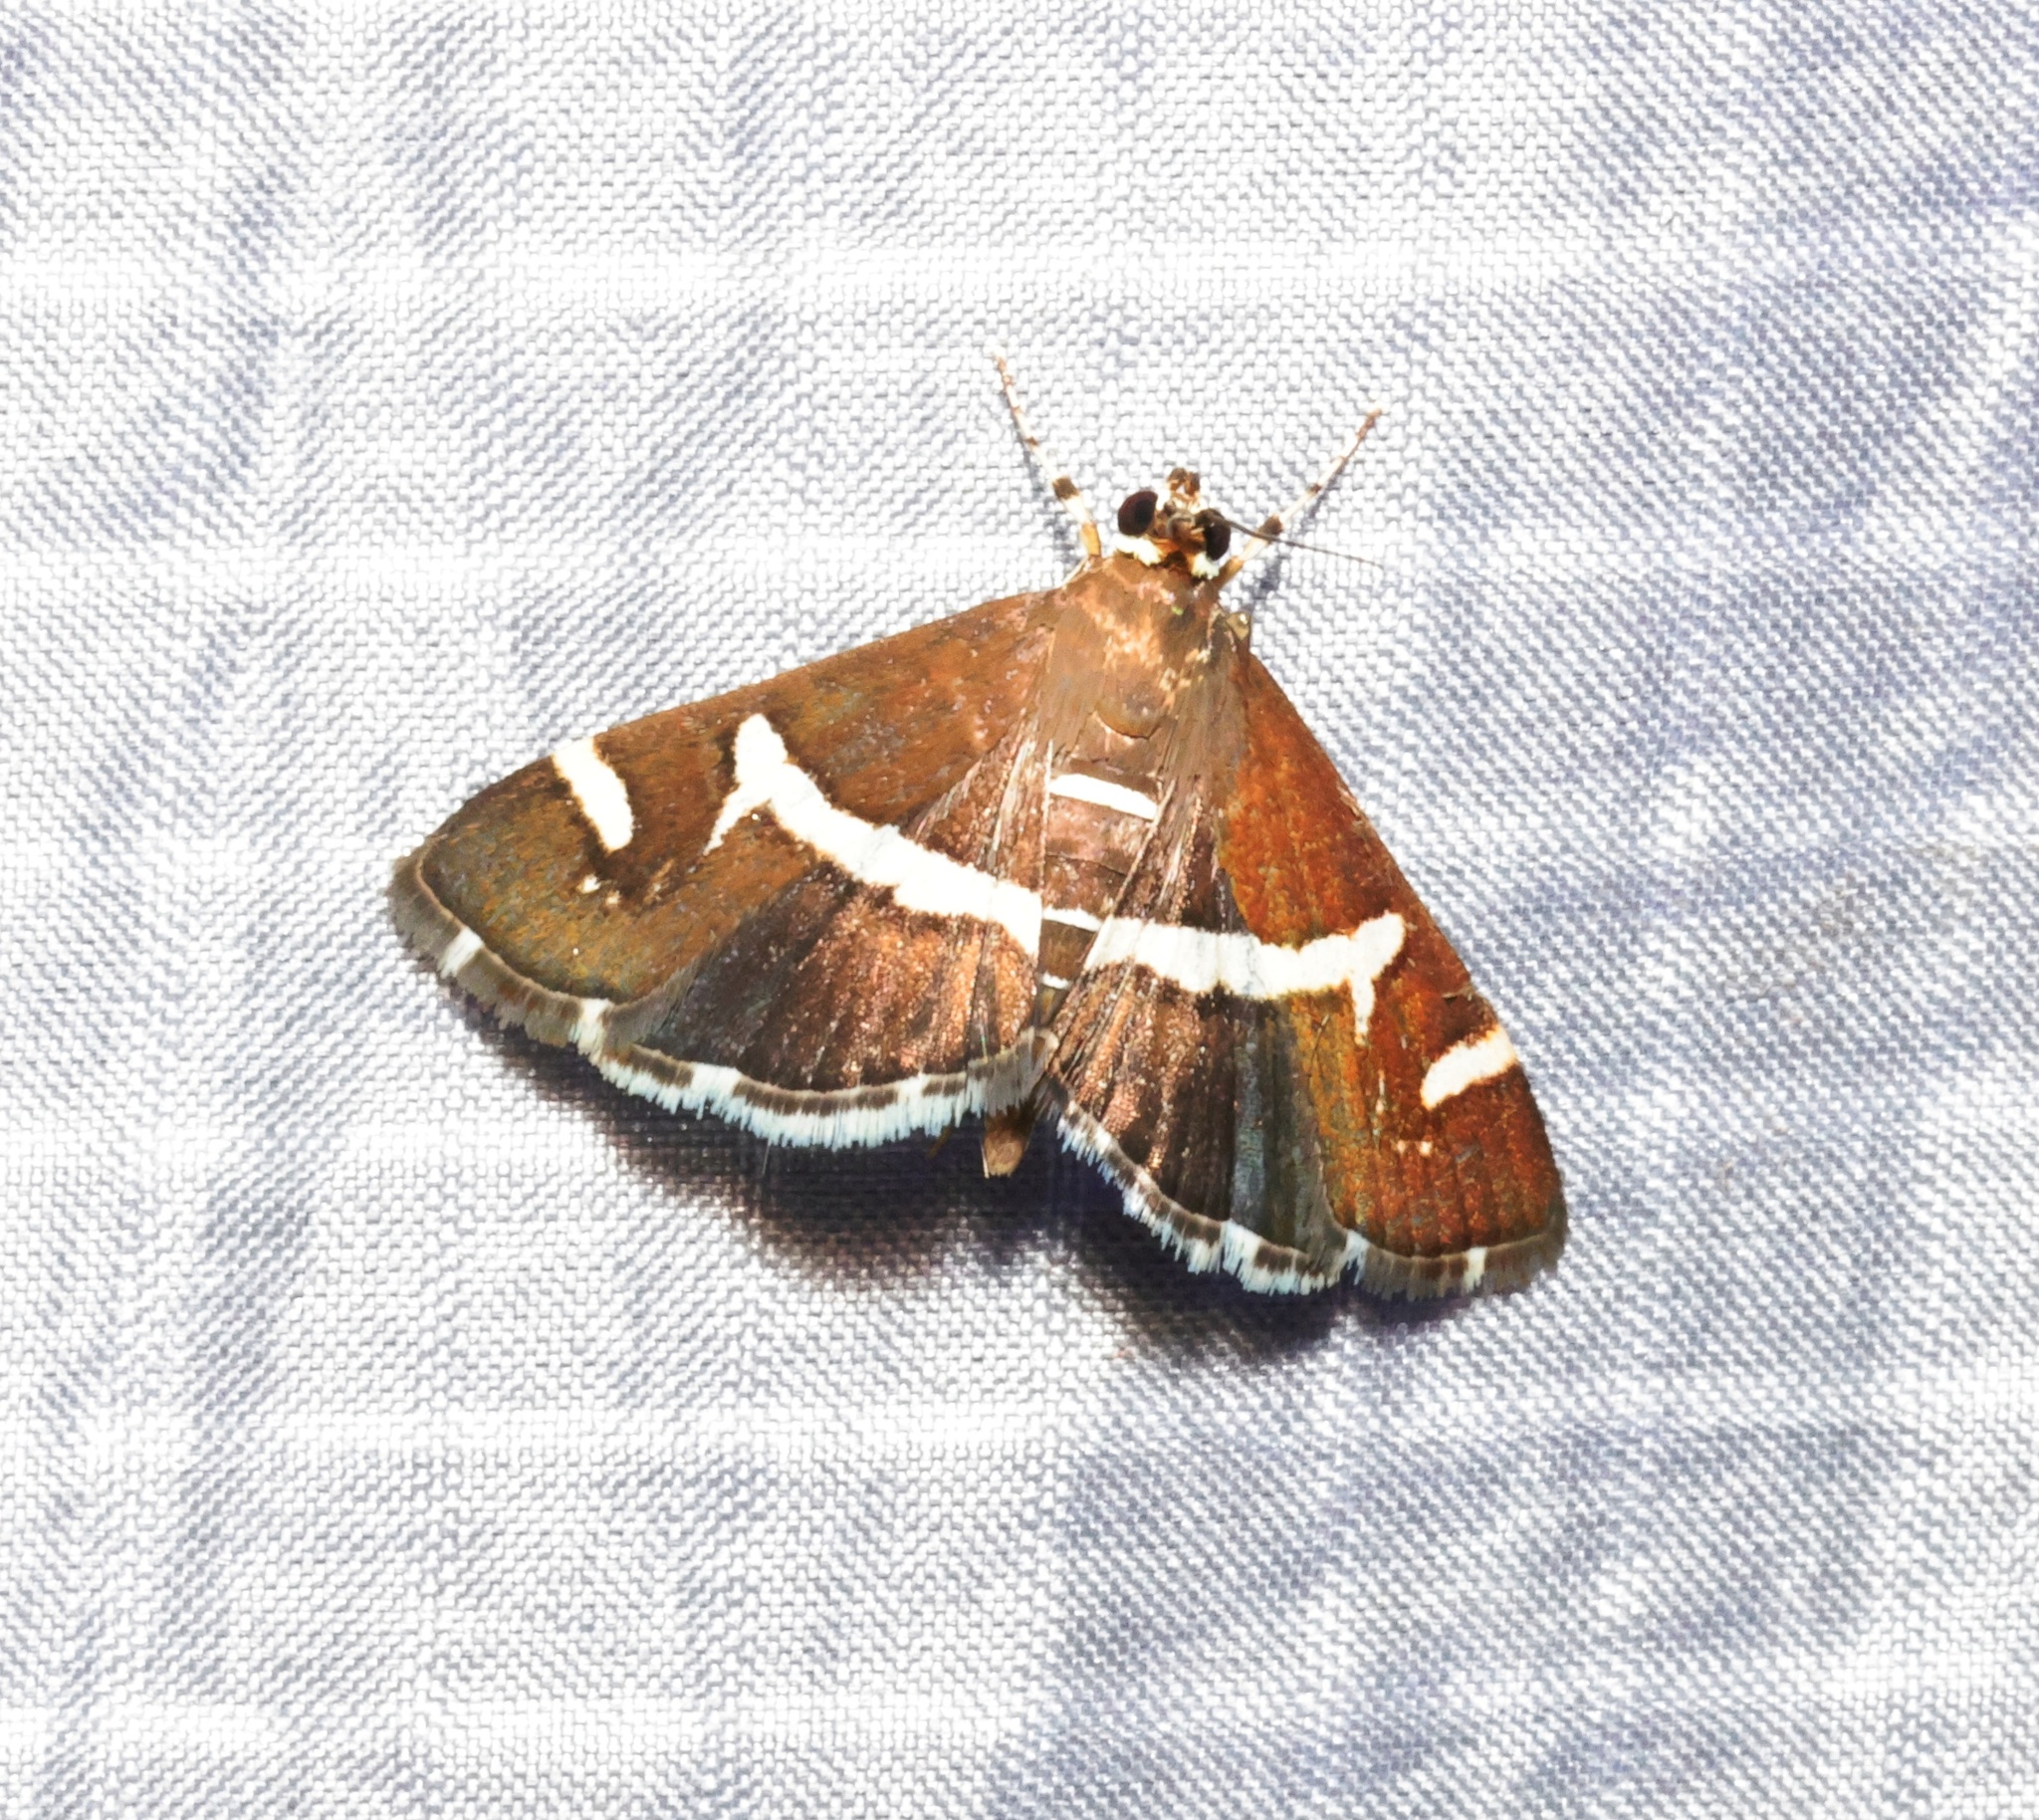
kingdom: Animalia
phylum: Arthropoda
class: Insecta
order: Lepidoptera
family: Crambidae
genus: Spoladea
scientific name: Spoladea recurvalis
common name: Beet webworm moth
